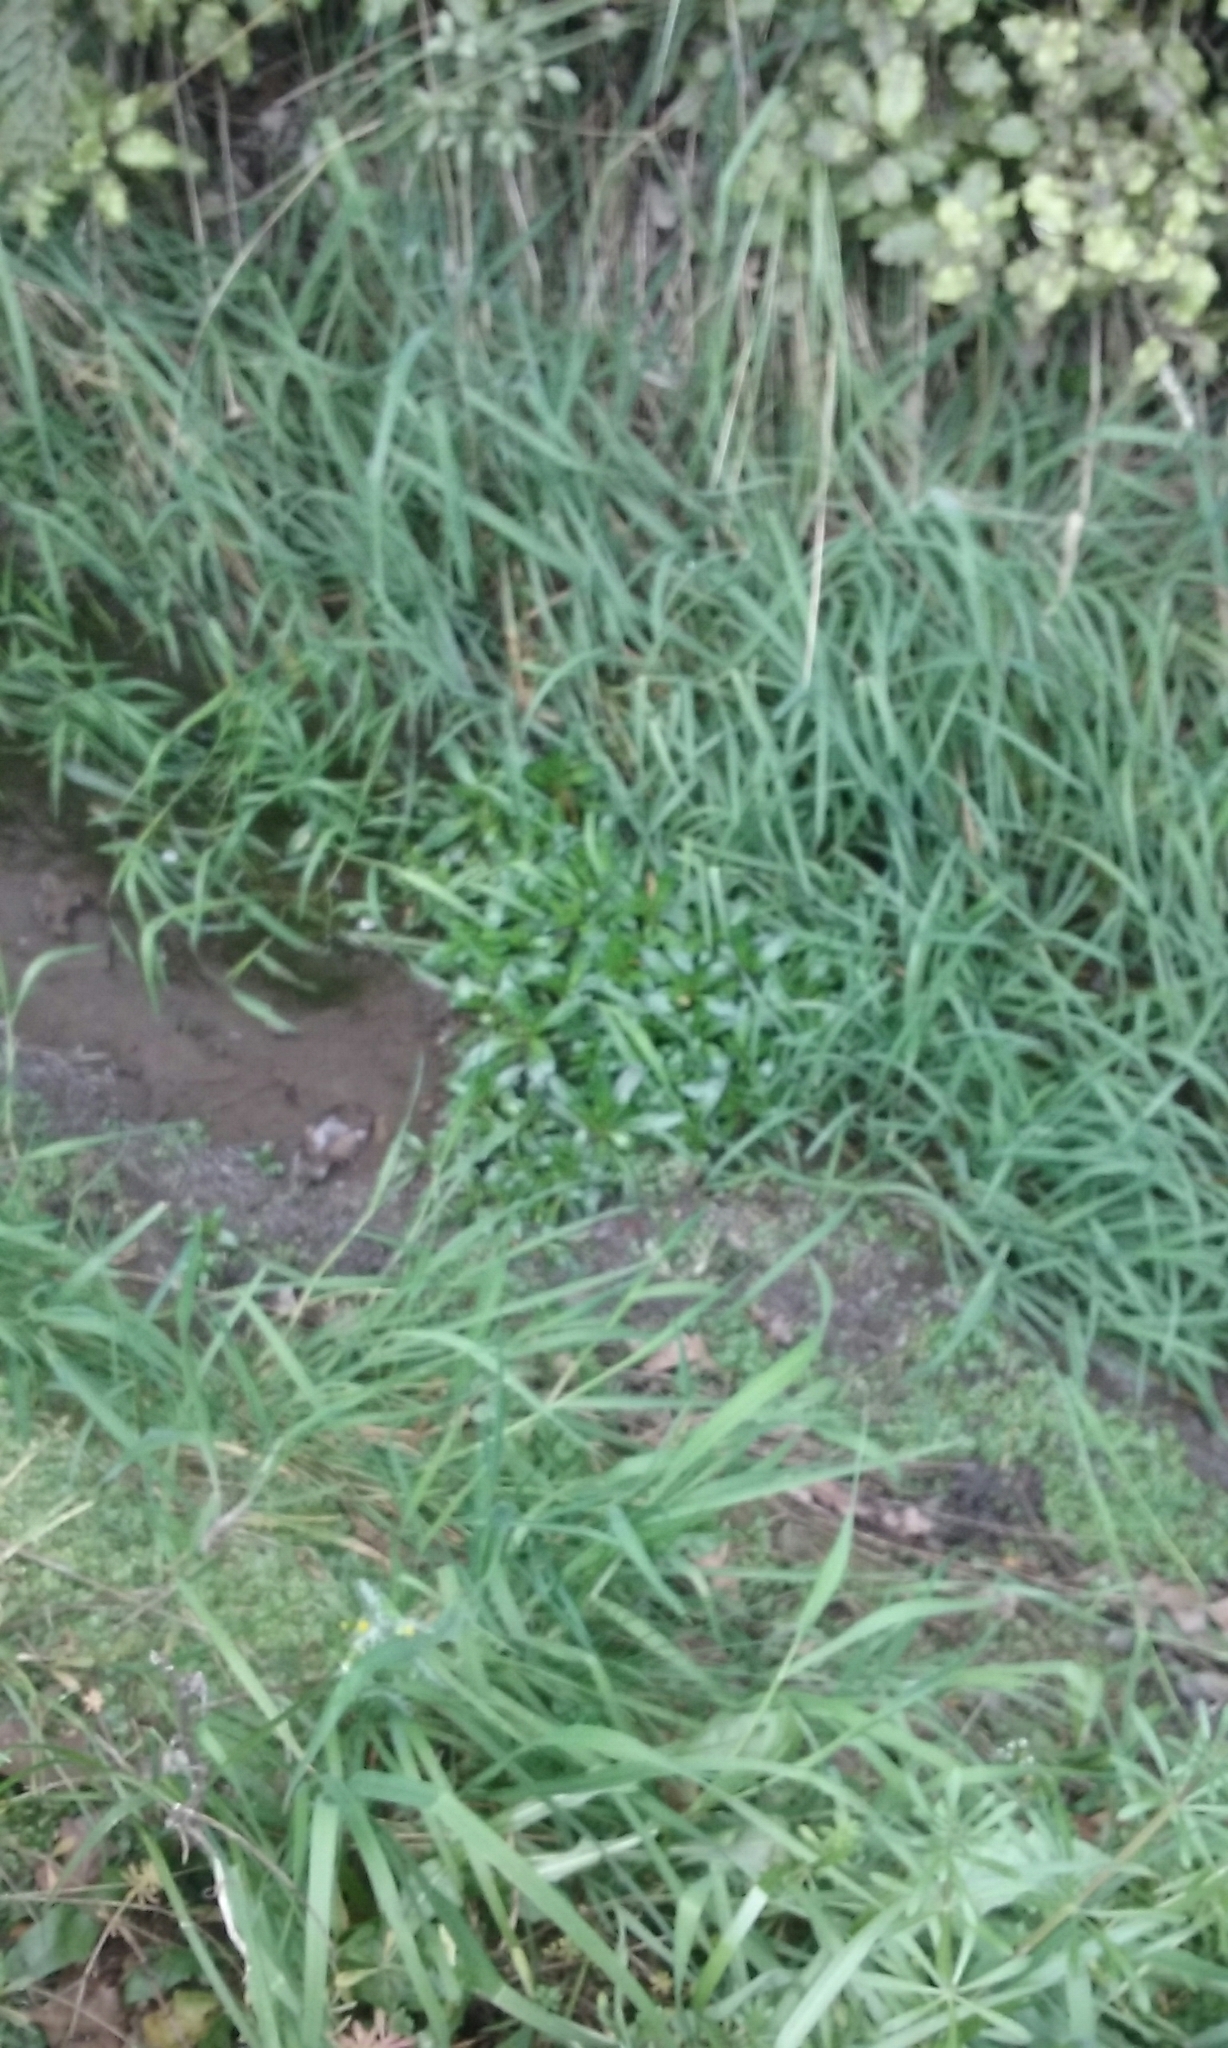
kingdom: Plantae
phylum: Tracheophyta
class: Magnoliopsida
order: Boraginales
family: Boraginaceae
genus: Myosotis
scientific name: Myosotis laxa
